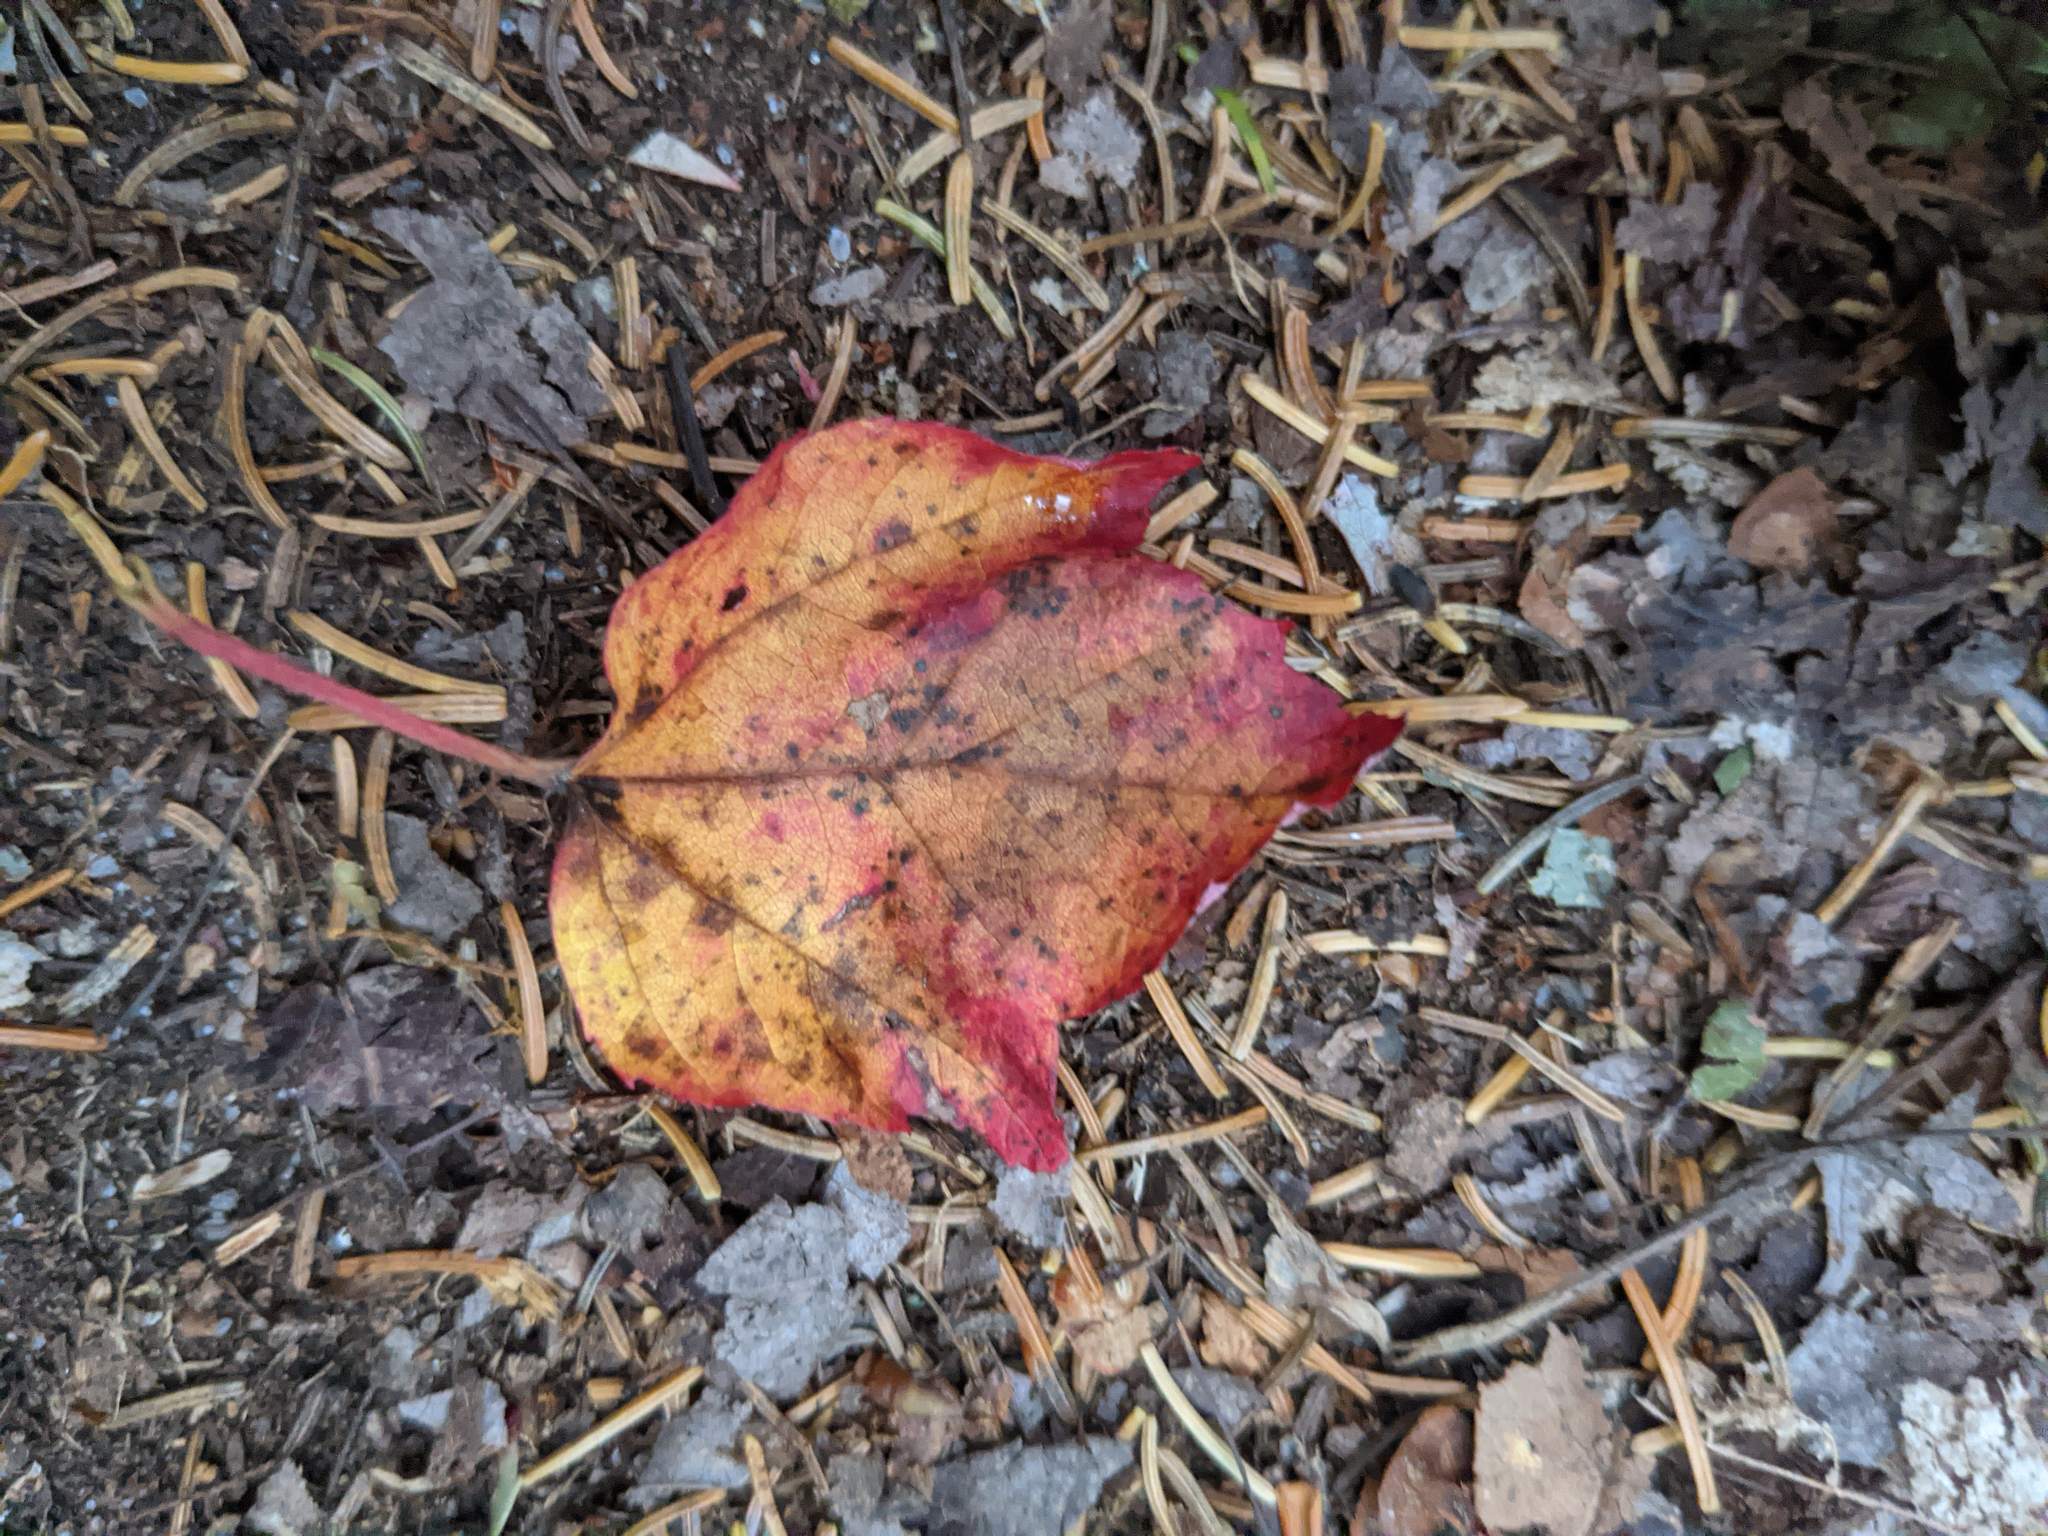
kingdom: Plantae
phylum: Tracheophyta
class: Magnoliopsida
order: Sapindales
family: Sapindaceae
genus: Acer
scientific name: Acer rubrum
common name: Red maple
